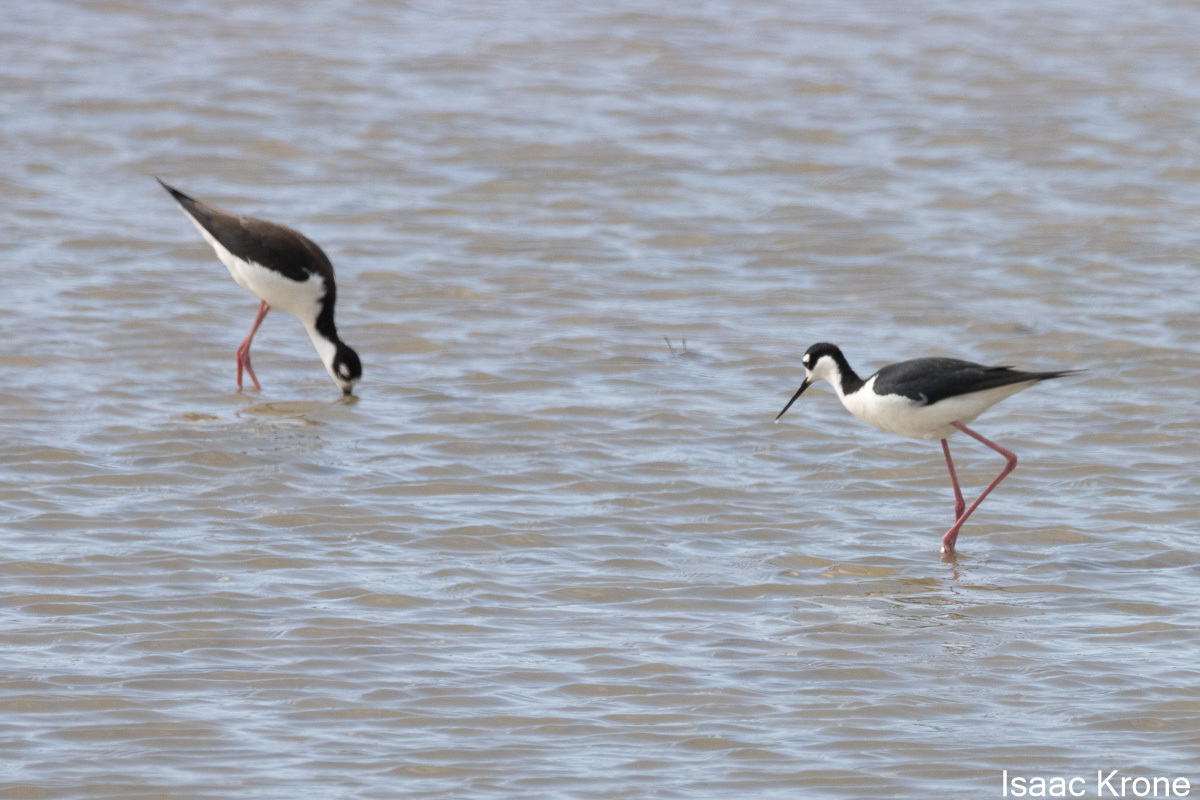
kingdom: Animalia
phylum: Chordata
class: Aves
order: Charadriiformes
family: Recurvirostridae
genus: Himantopus
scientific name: Himantopus mexicanus
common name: Black-necked stilt
